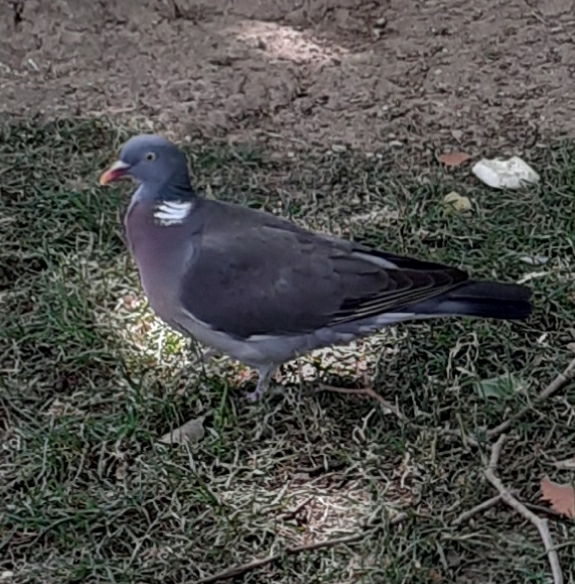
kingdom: Animalia
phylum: Chordata
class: Aves
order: Columbiformes
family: Columbidae
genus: Columba
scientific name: Columba palumbus
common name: Common wood pigeon
